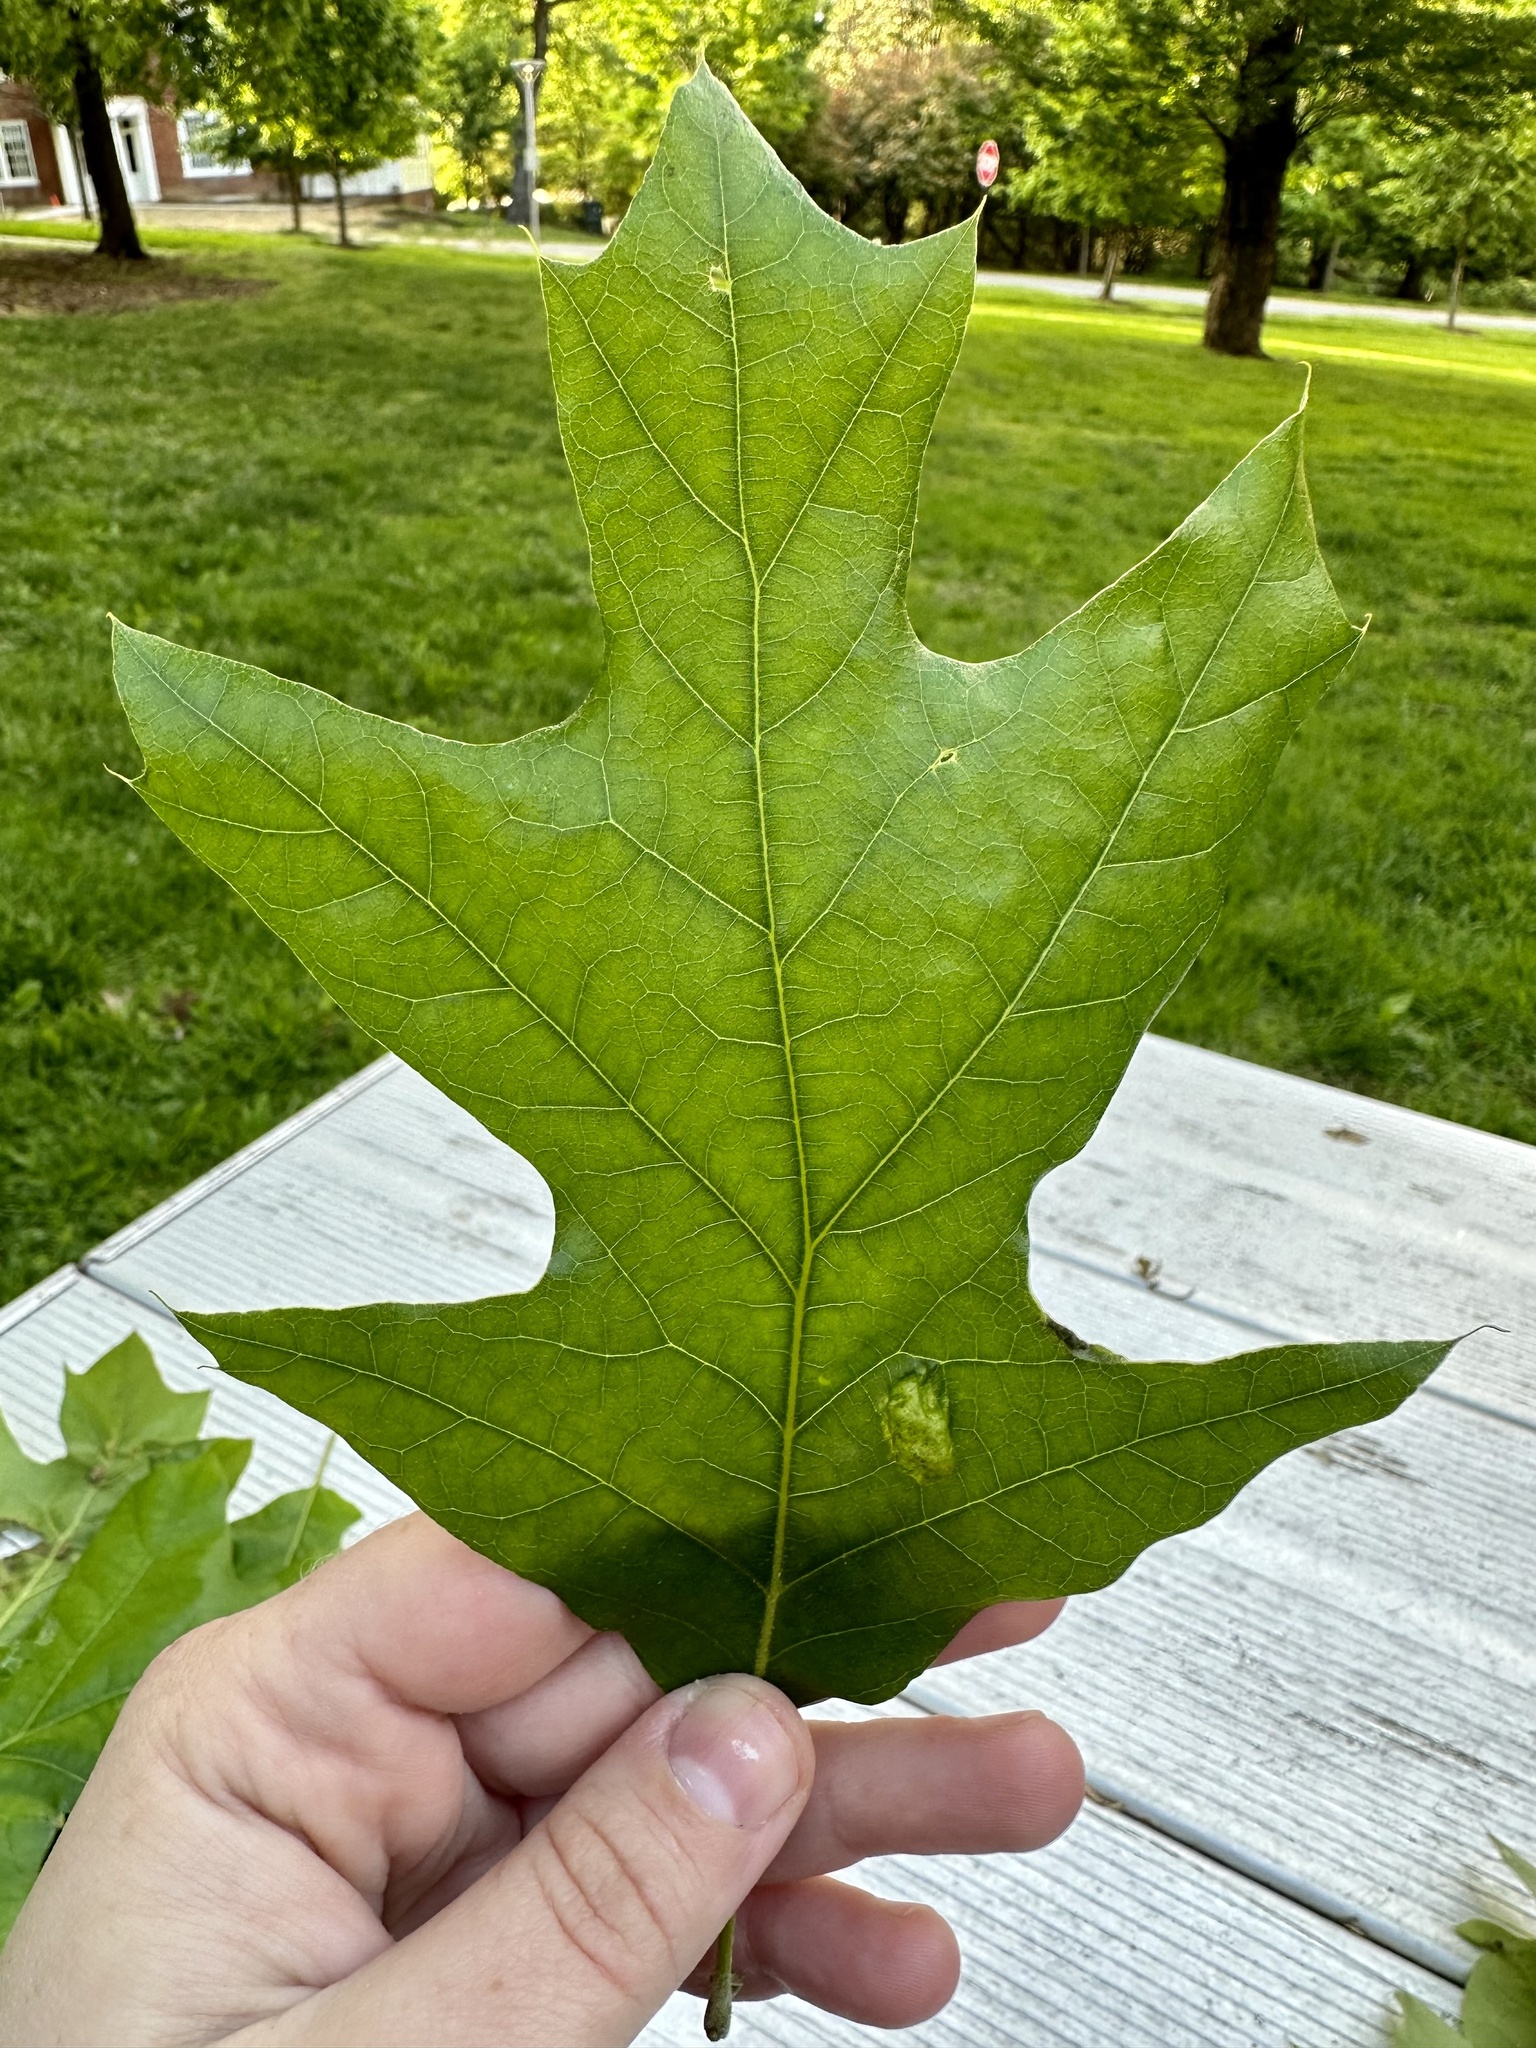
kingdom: Plantae
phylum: Tracheophyta
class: Magnoliopsida
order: Fagales
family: Fagaceae
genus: Quercus
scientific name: Quercus velutina
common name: Black oak
